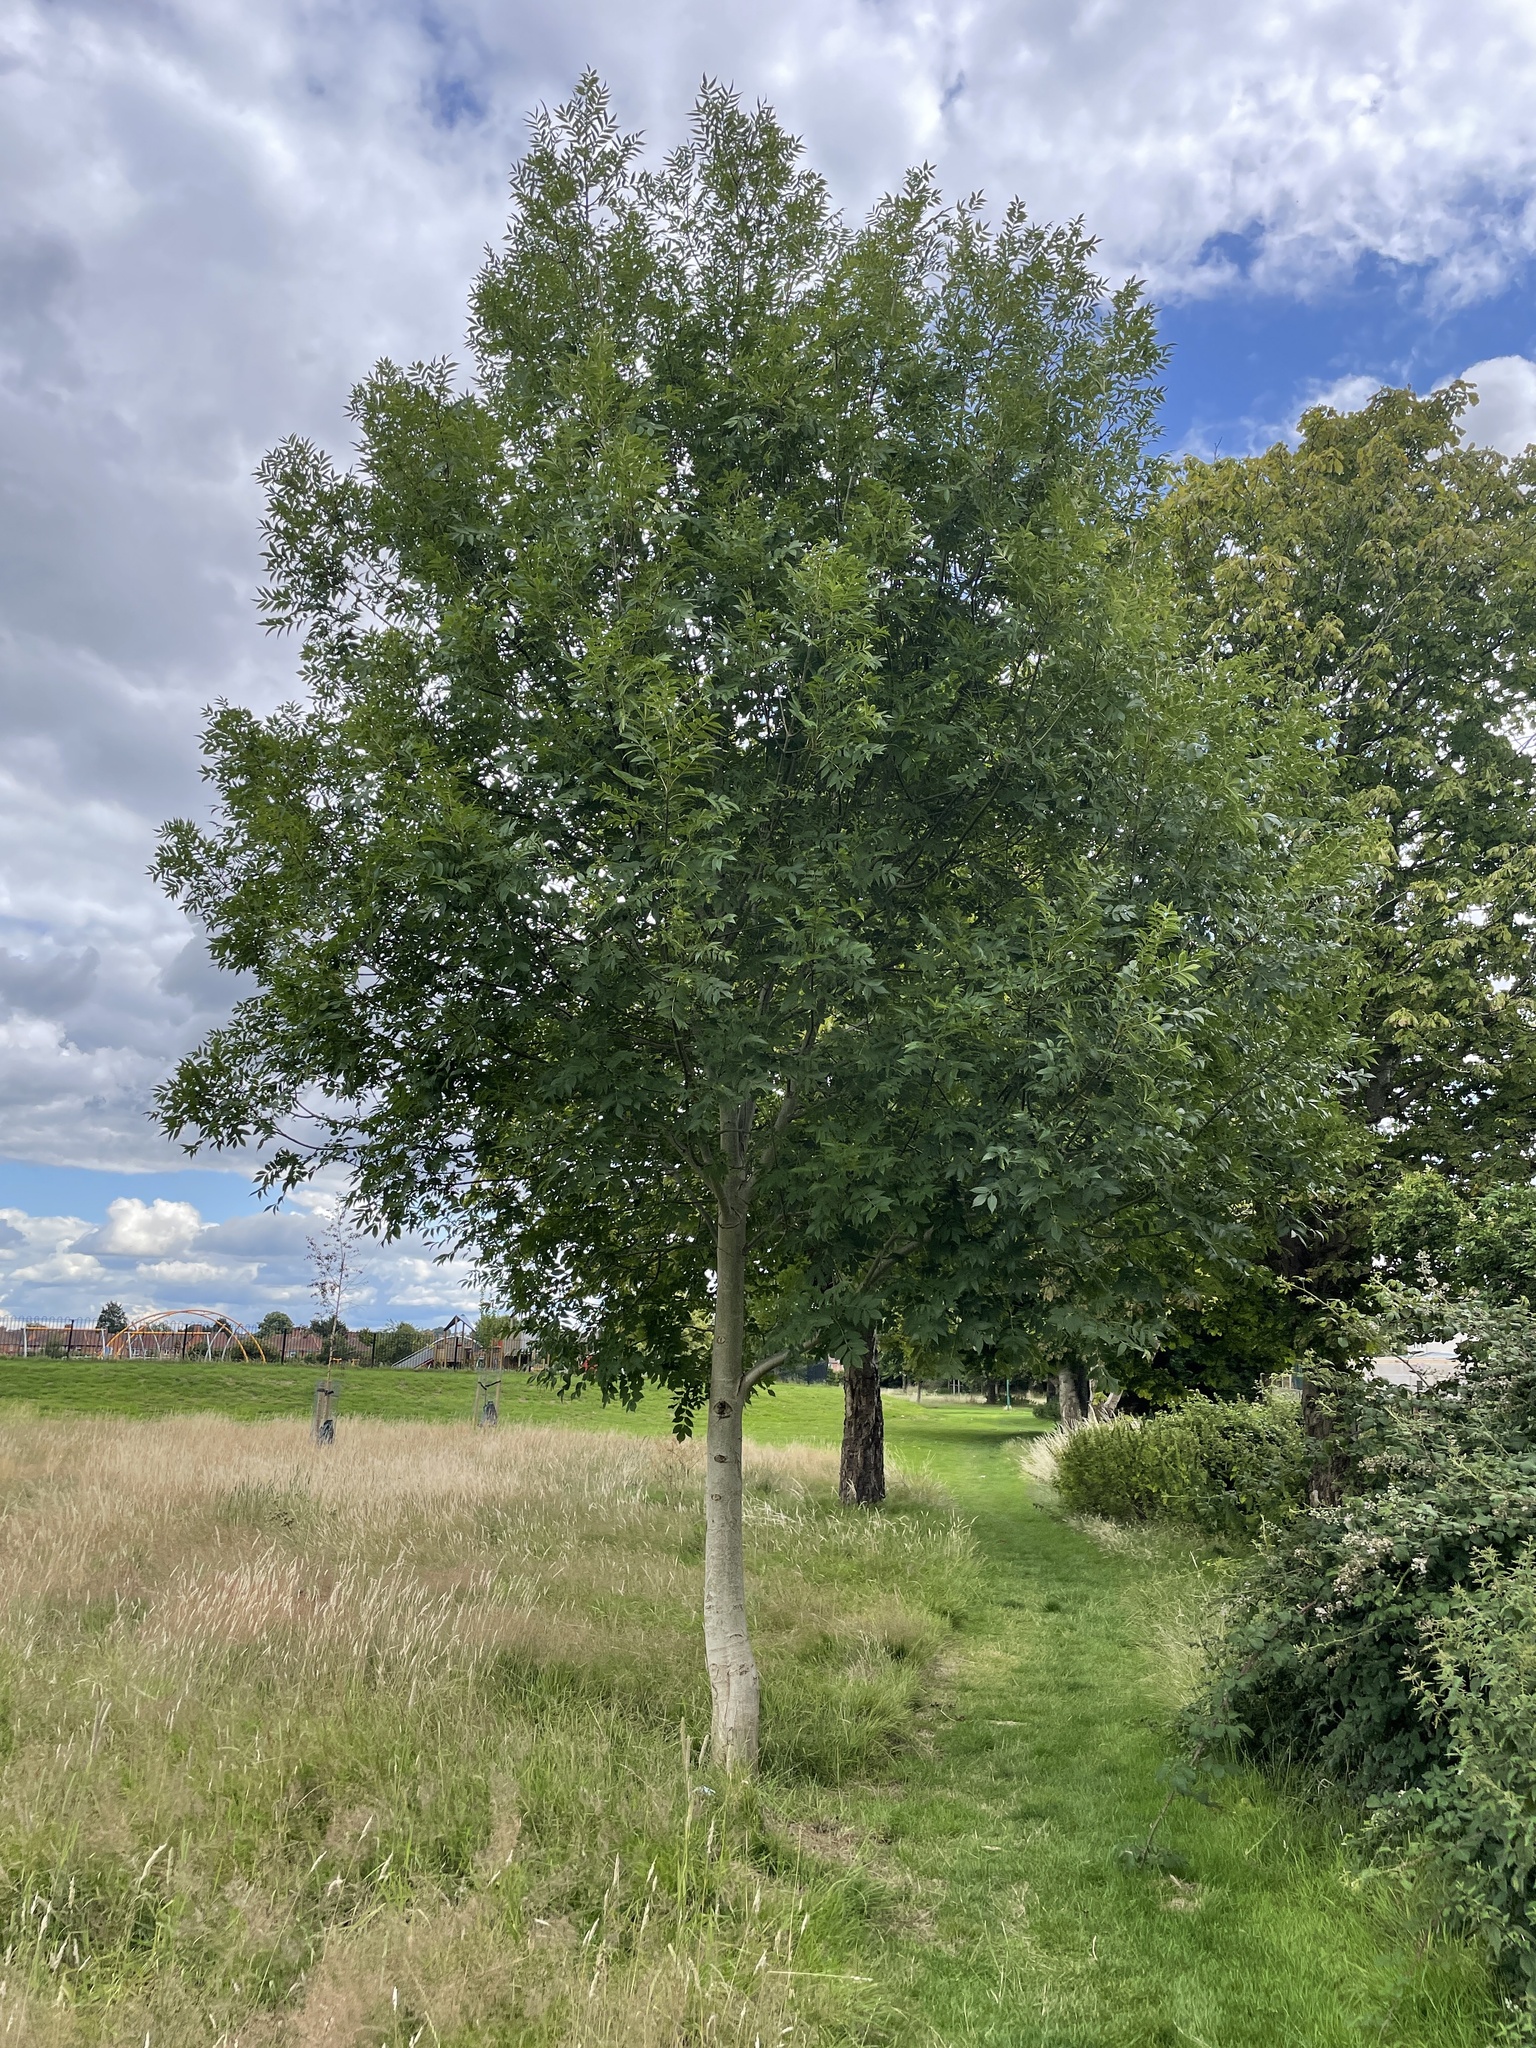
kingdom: Plantae
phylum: Tracheophyta
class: Magnoliopsida
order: Lamiales
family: Oleaceae
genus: Fraxinus
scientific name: Fraxinus excelsior
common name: European ash
